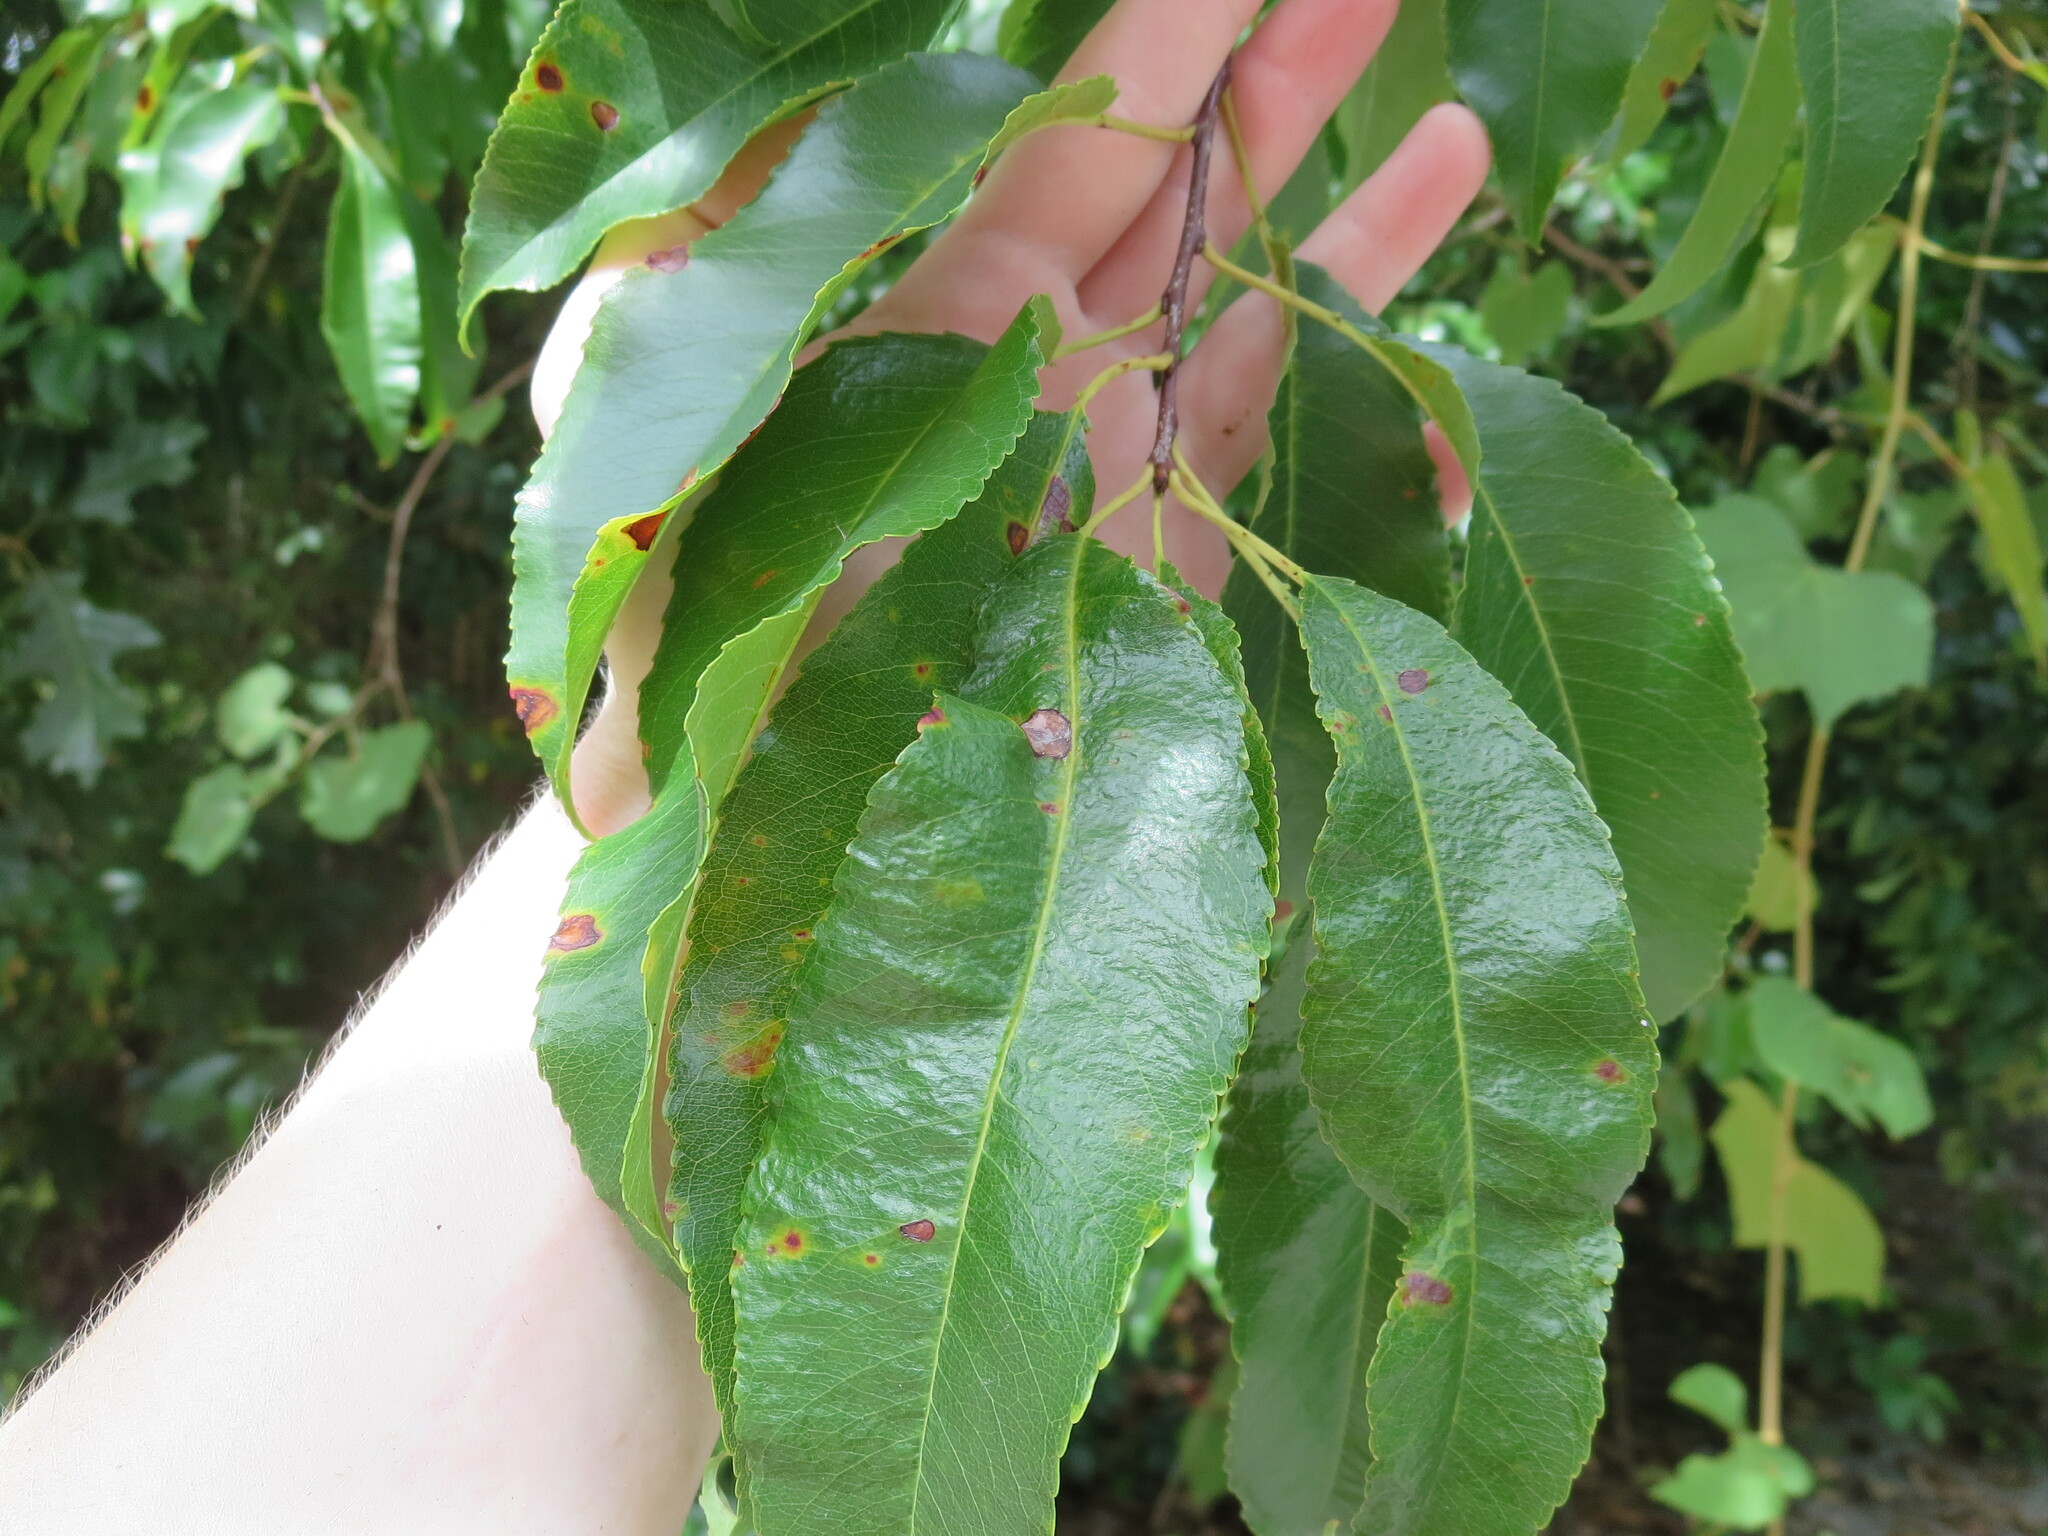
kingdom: Plantae
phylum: Tracheophyta
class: Magnoliopsida
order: Rosales
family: Rosaceae
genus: Prunus
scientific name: Prunus serotina
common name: Black cherry
